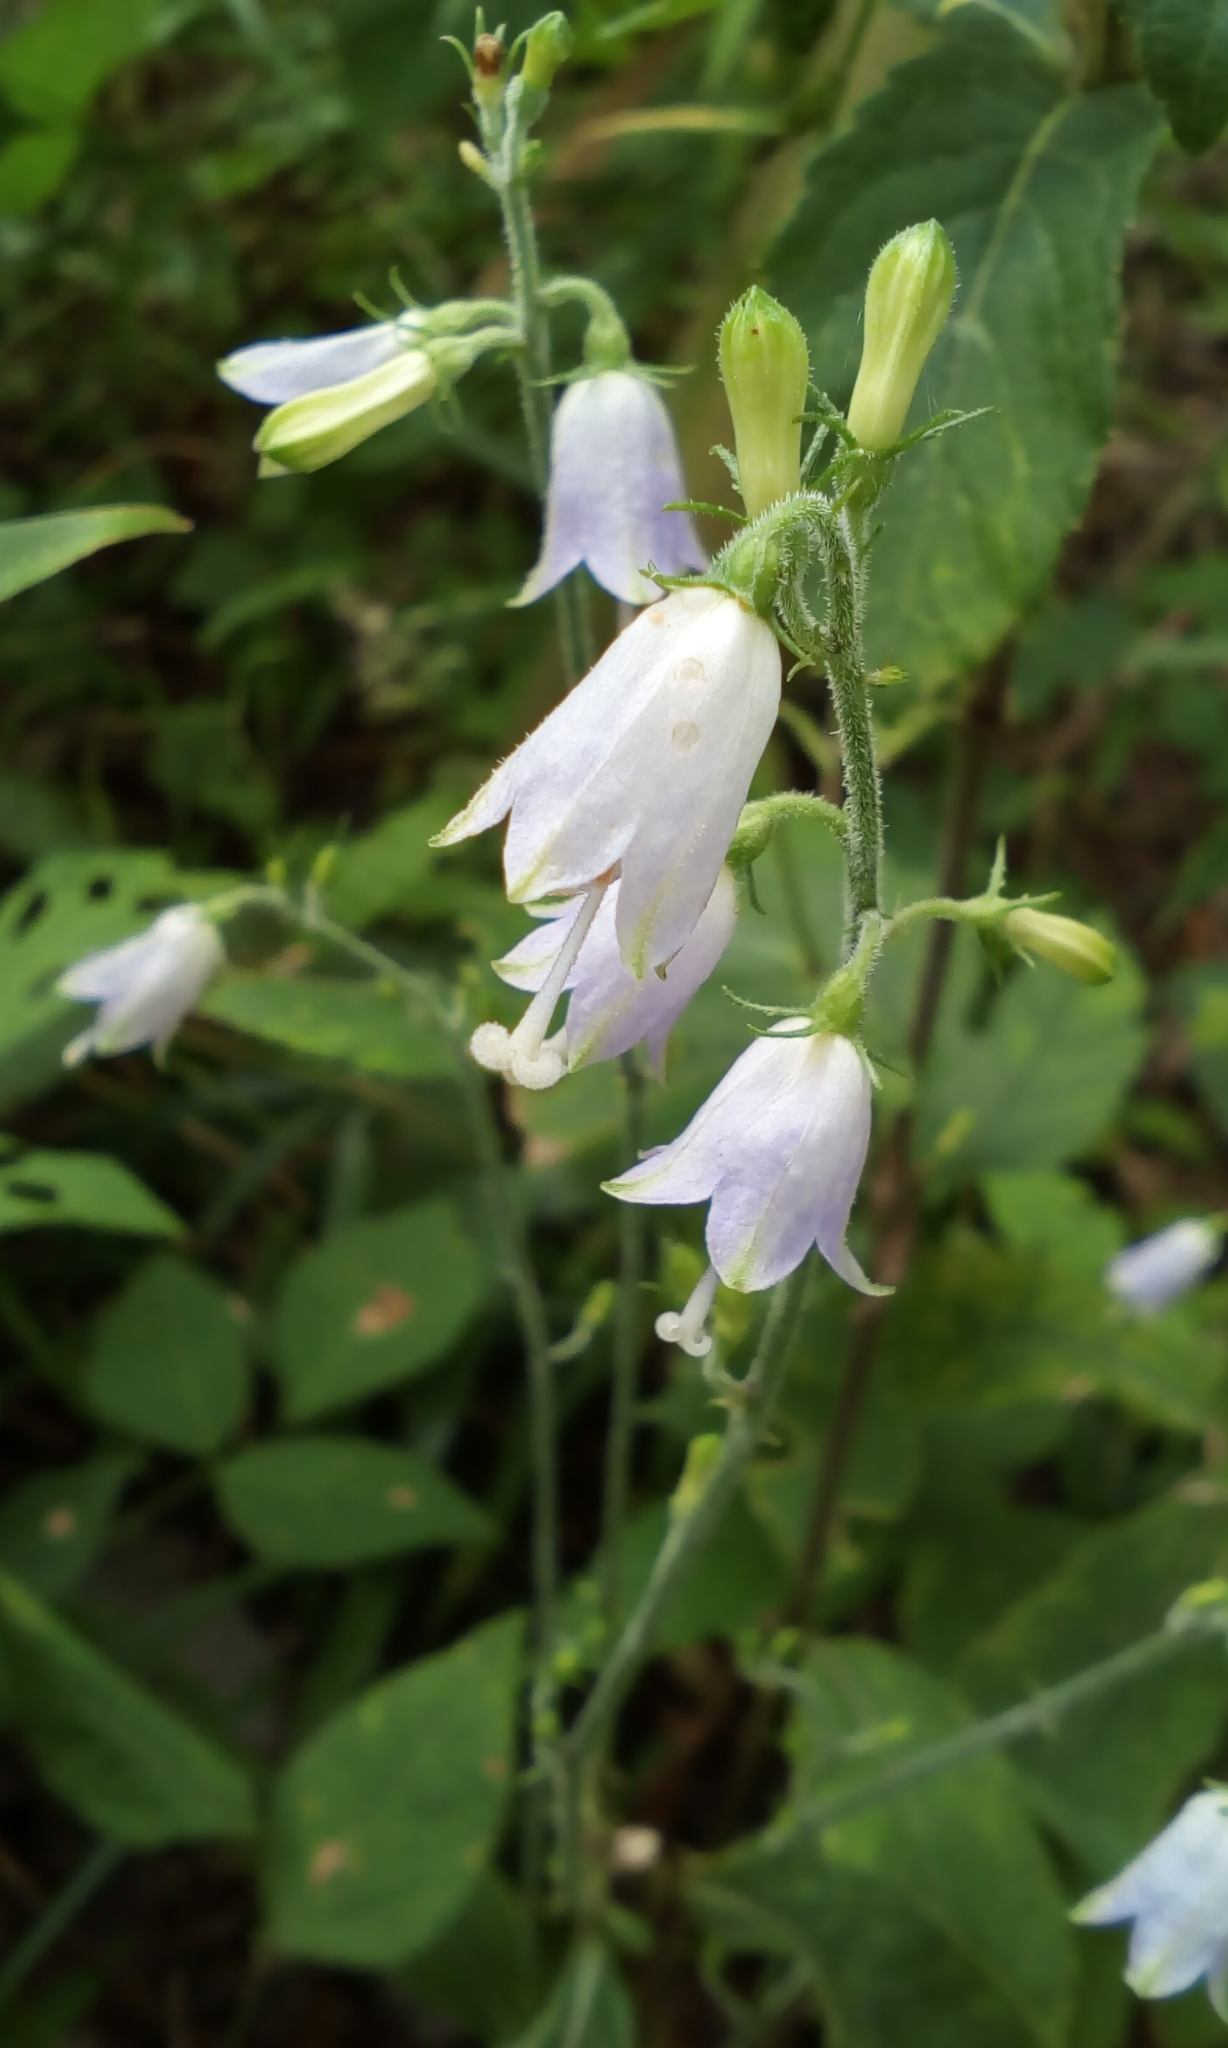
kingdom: Plantae
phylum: Tracheophyta
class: Magnoliopsida
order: Asterales
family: Campanulaceae
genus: Adenophora
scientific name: Adenophora triphylla
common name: Giant-bellflower
